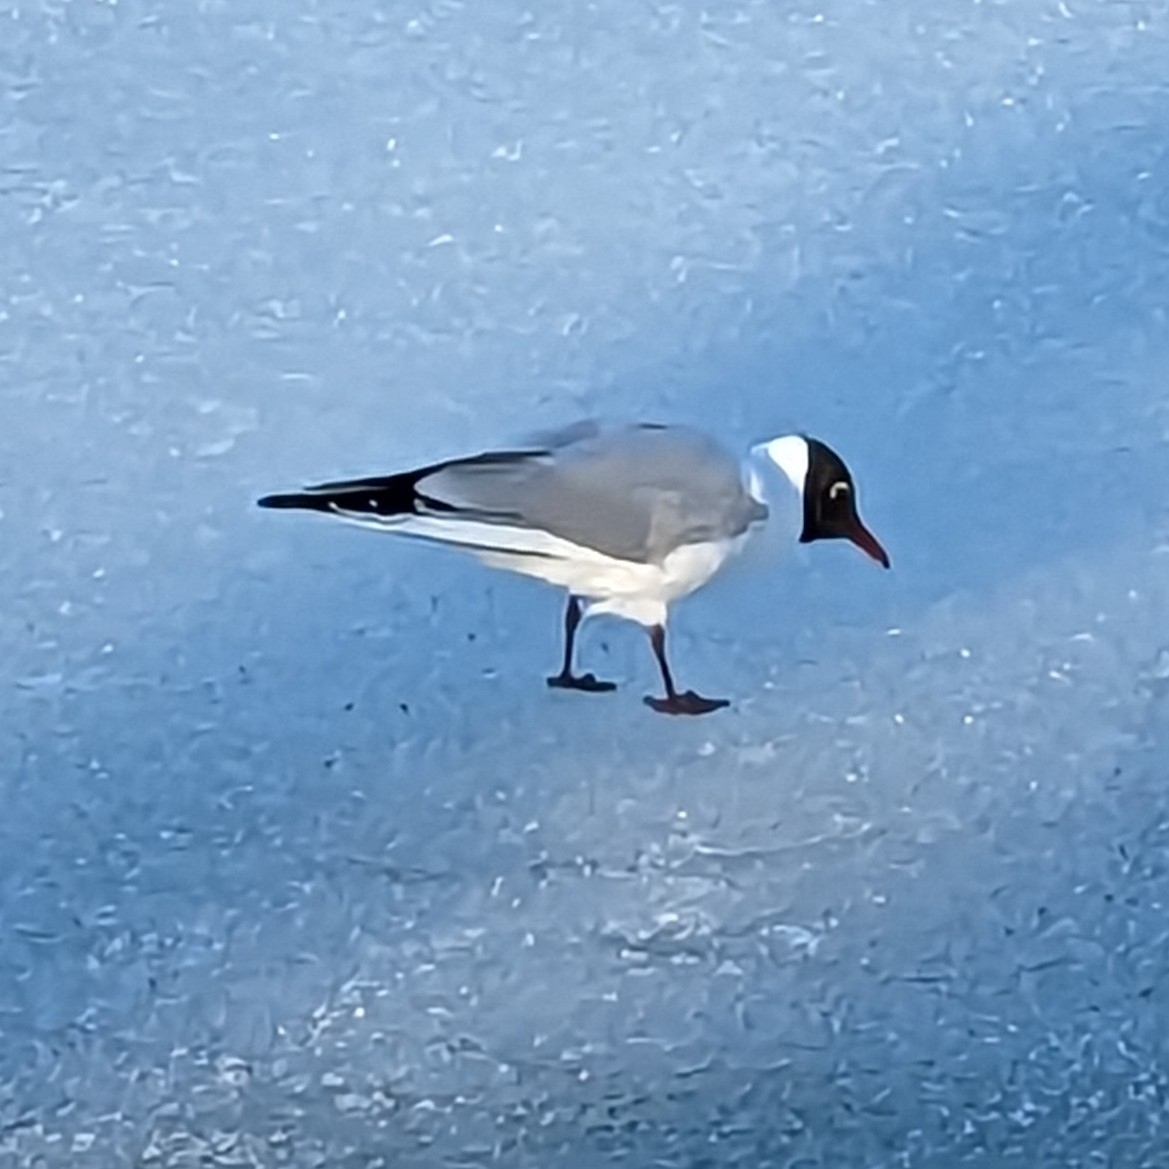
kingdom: Animalia
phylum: Chordata
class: Aves
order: Charadriiformes
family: Laridae
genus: Chroicocephalus
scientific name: Chroicocephalus ridibundus
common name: Black-headed gull
